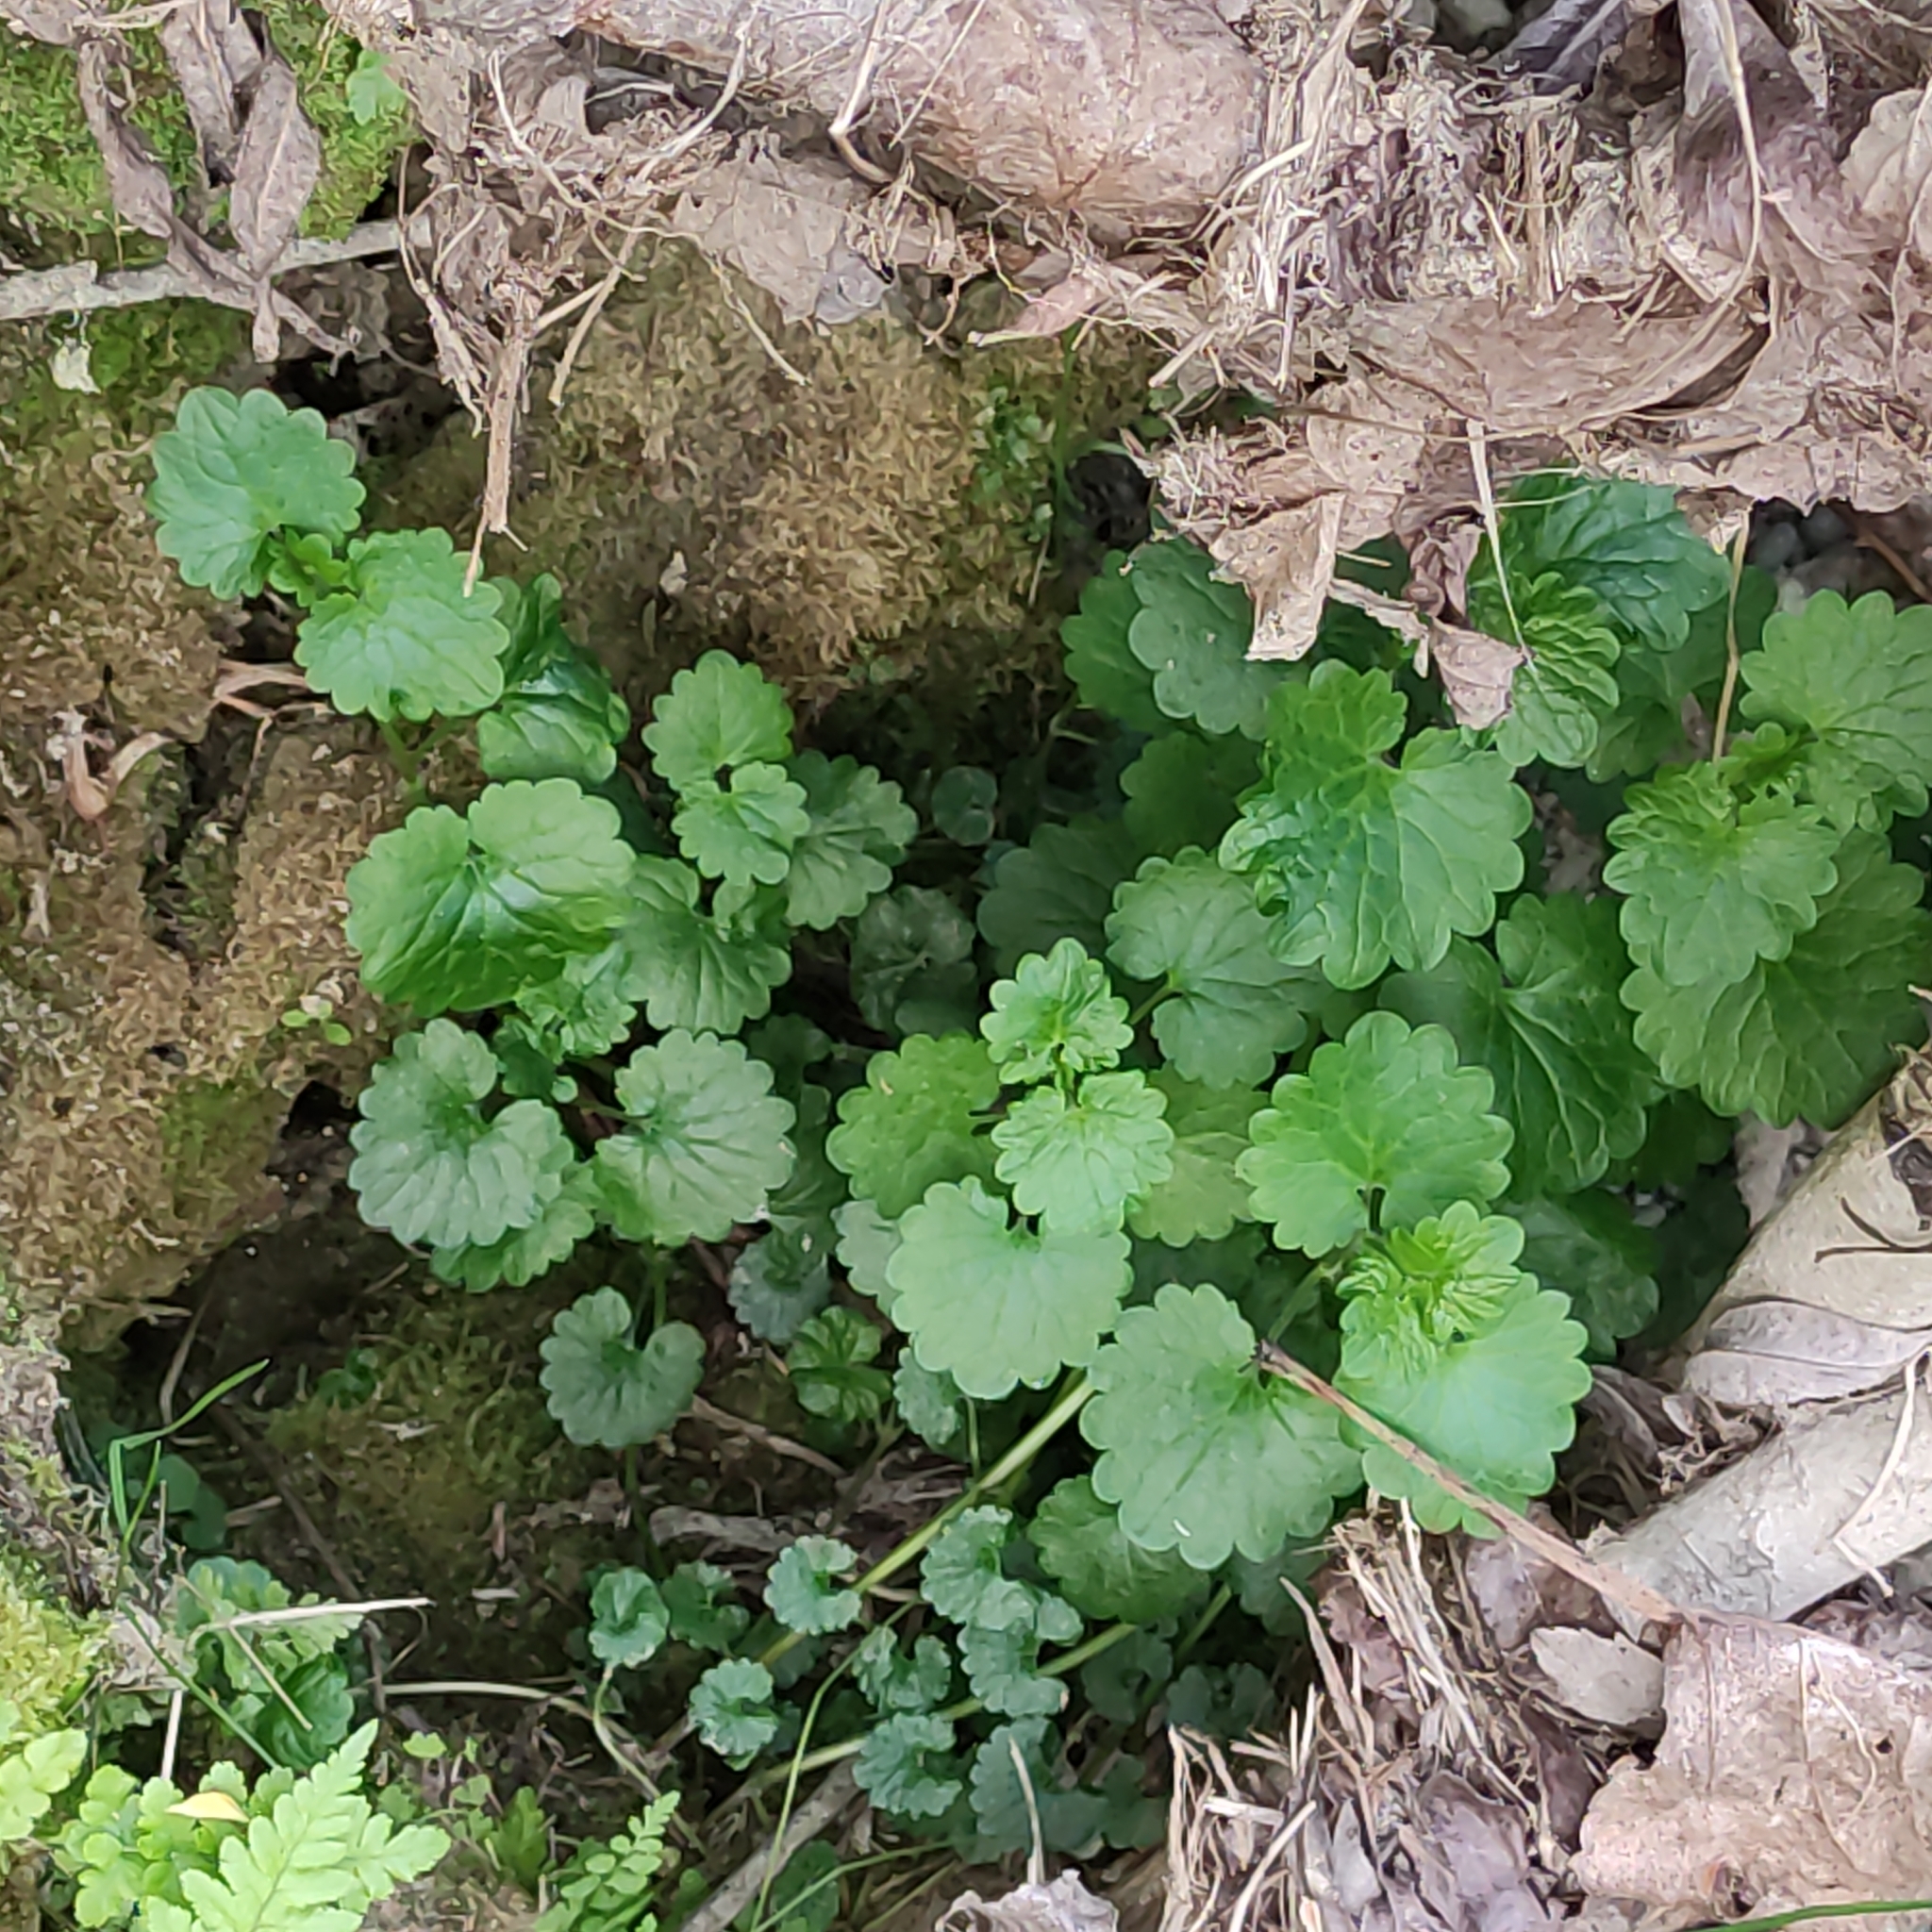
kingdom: Plantae
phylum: Tracheophyta
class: Magnoliopsida
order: Lamiales
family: Lamiaceae
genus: Glechoma
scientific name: Glechoma hederacea
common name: Ground ivy
